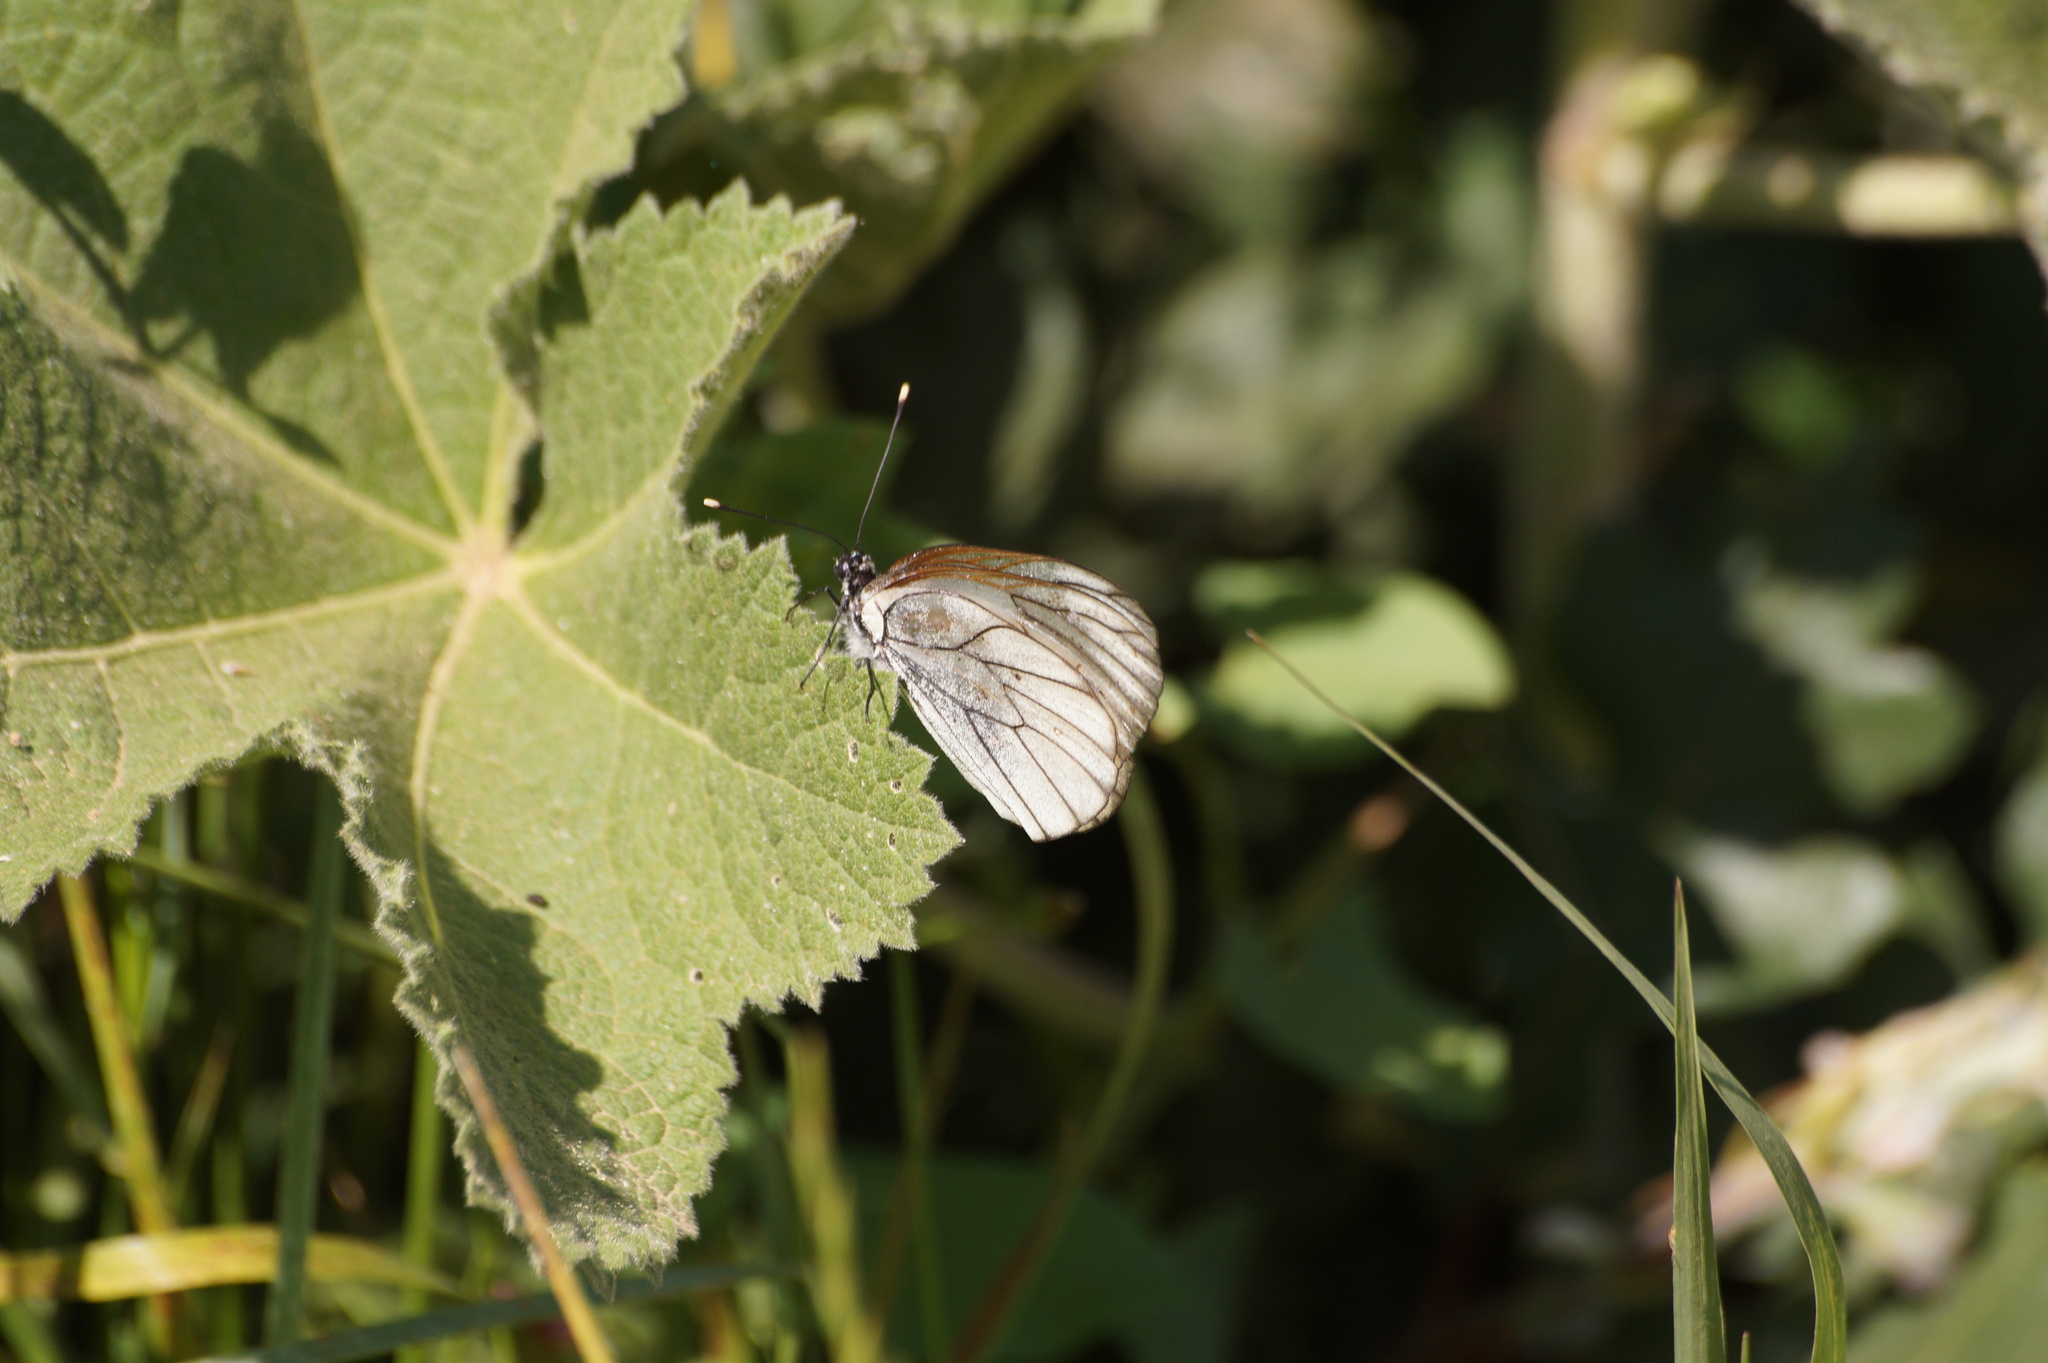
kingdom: Animalia
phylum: Arthropoda
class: Insecta
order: Lepidoptera
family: Pieridae
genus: Aporia
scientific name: Aporia crataegi
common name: Black-veined white
